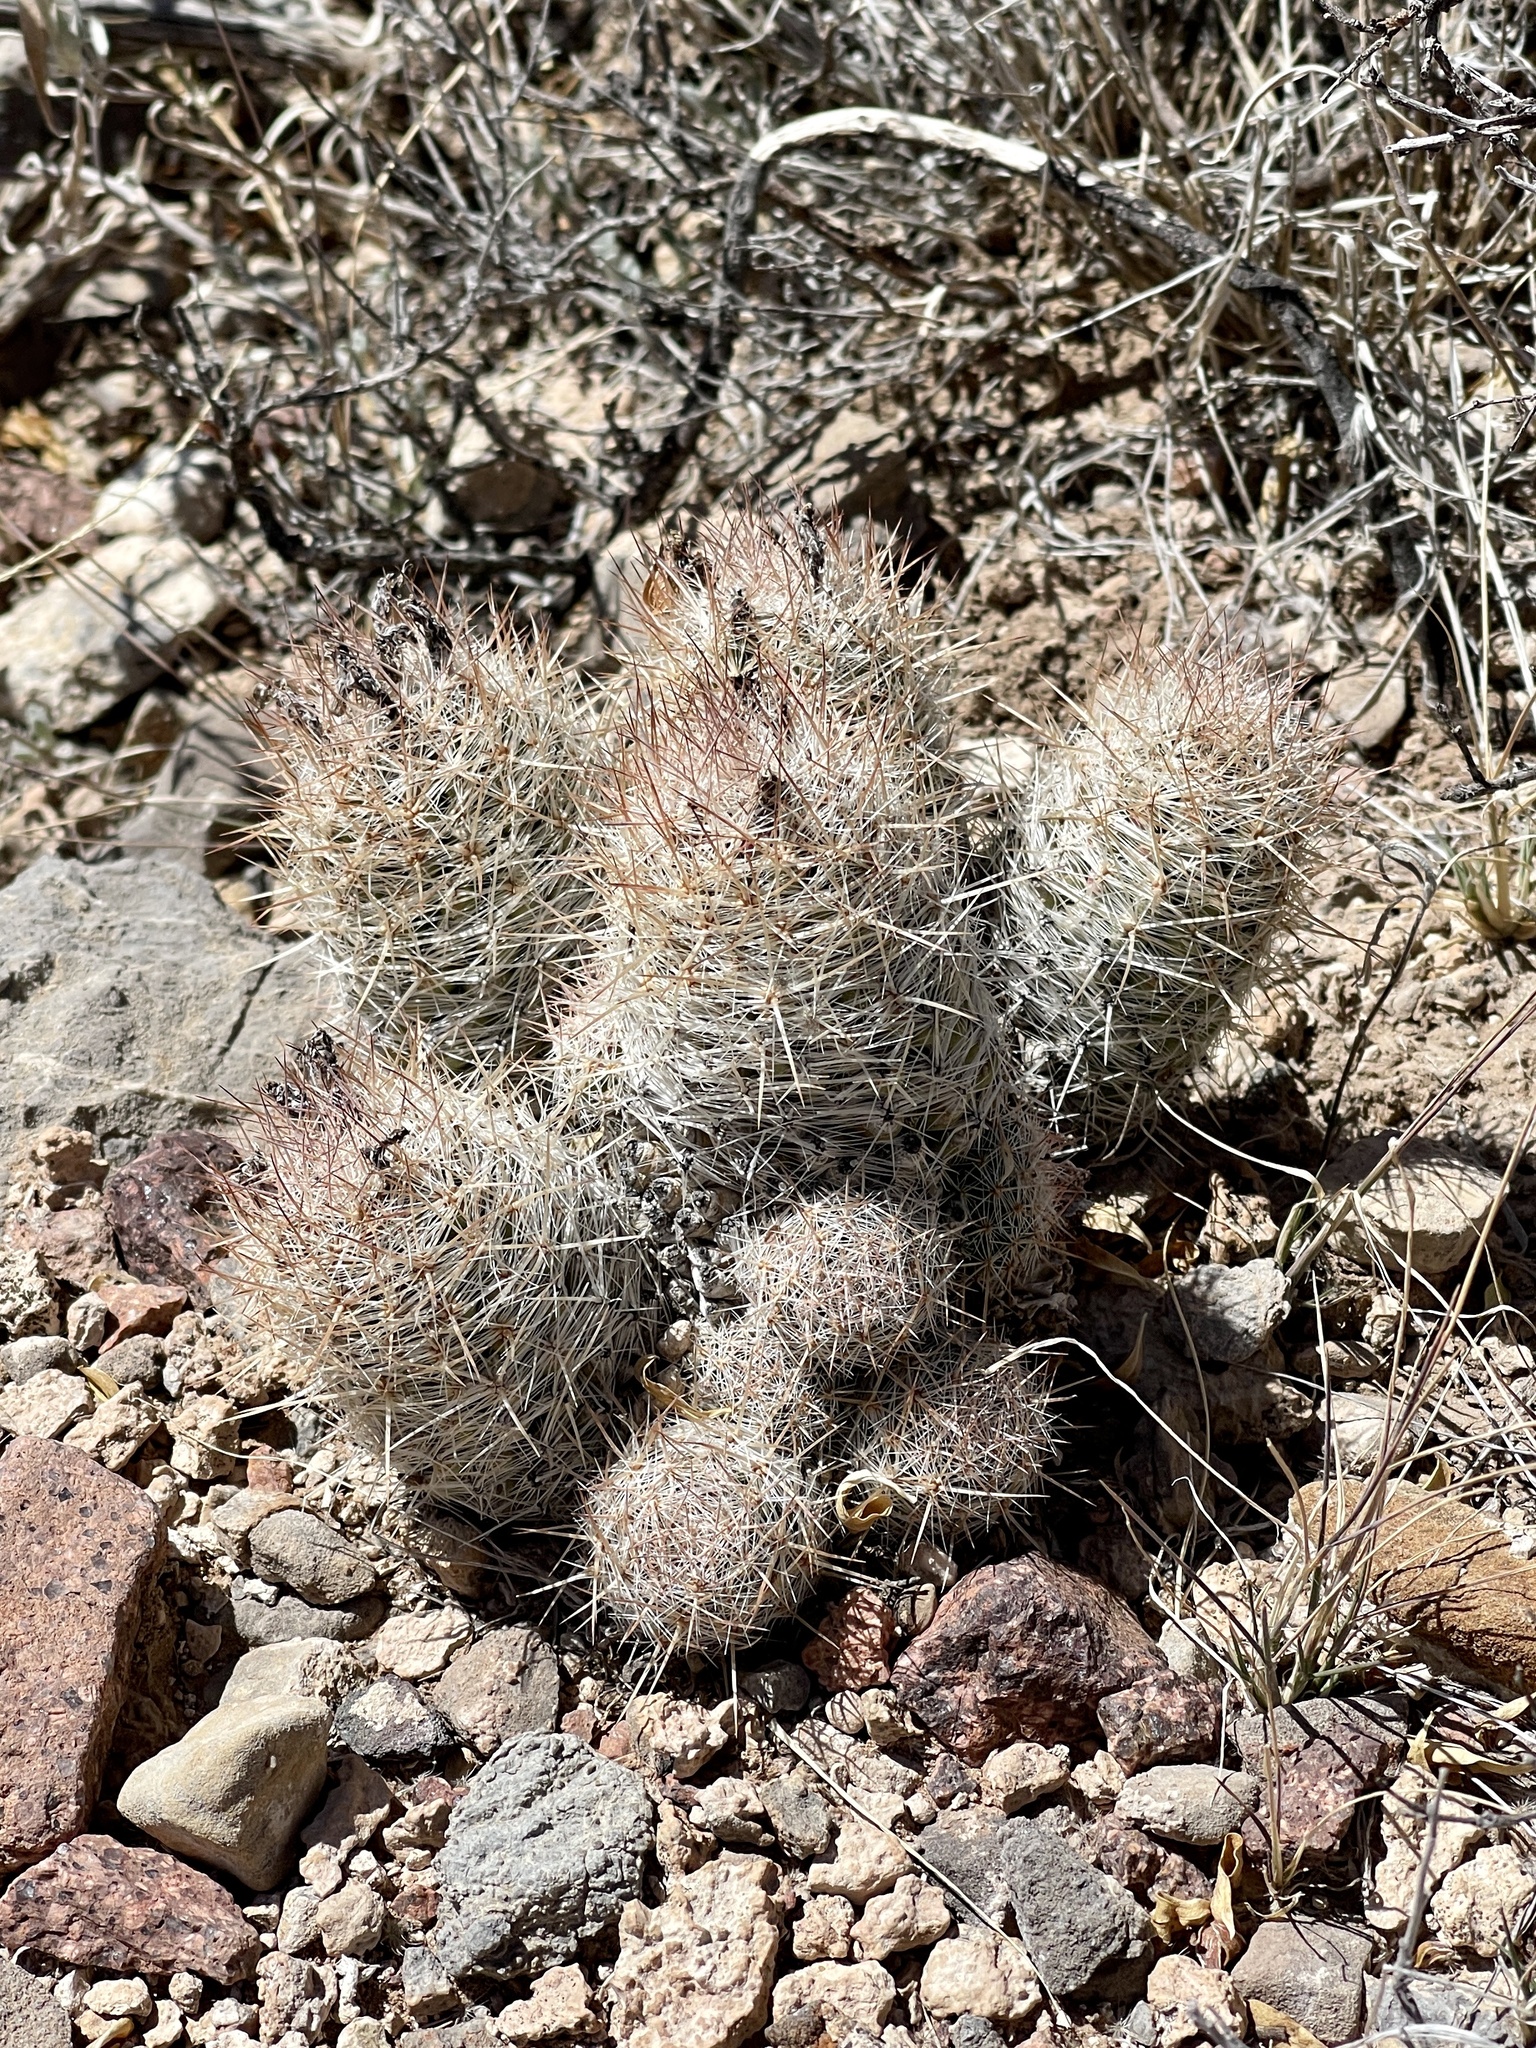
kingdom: Plantae
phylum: Tracheophyta
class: Magnoliopsida
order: Caryophyllales
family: Cactaceae
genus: Pelecyphora
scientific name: Pelecyphora tuberculosa
